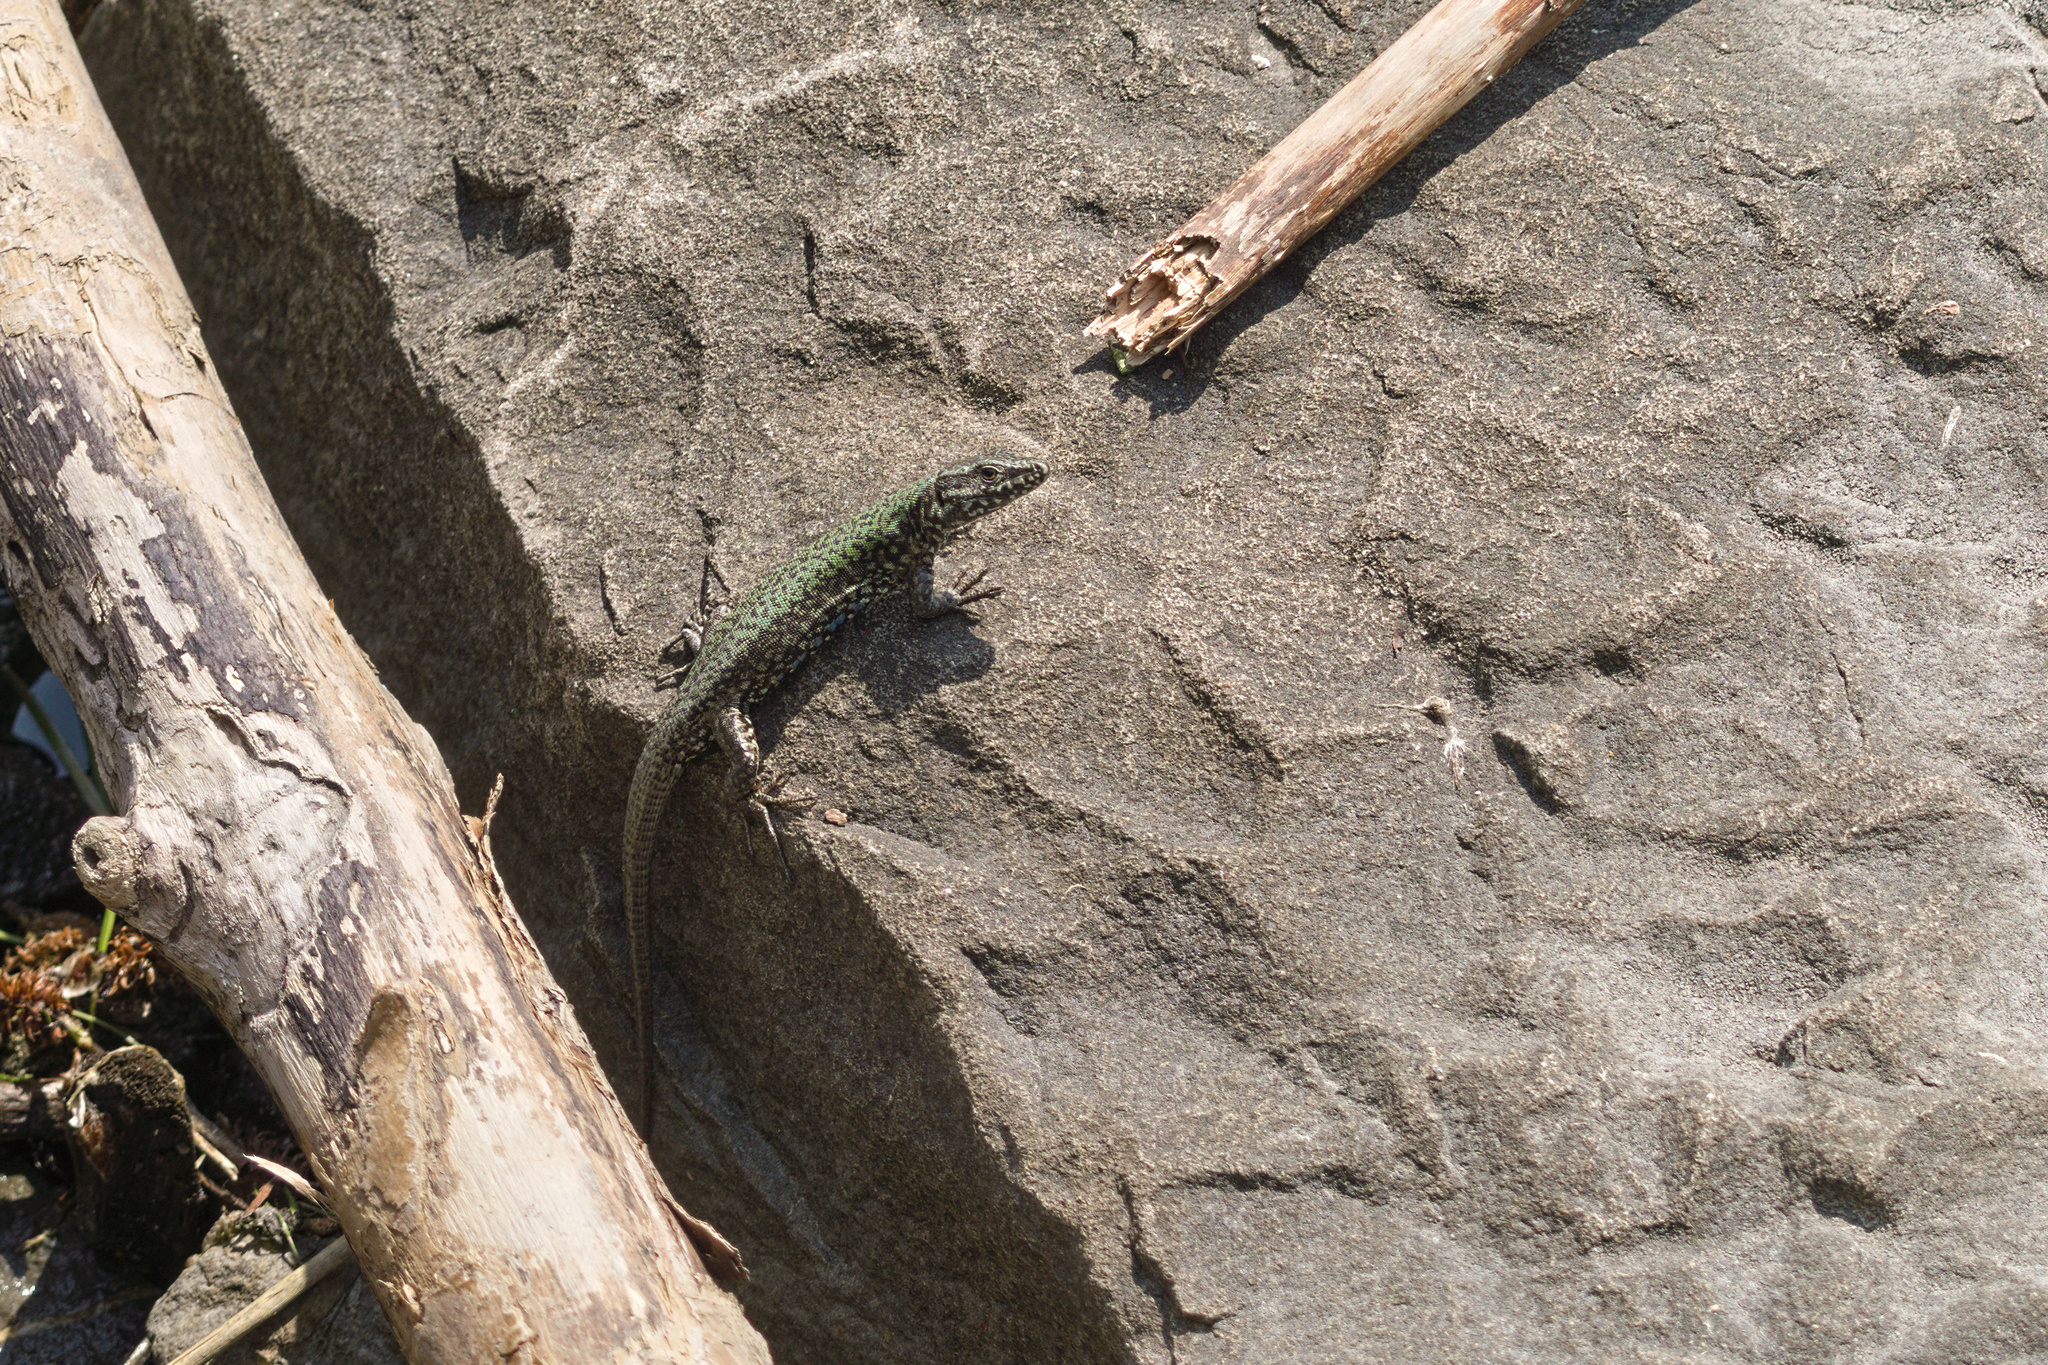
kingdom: Animalia
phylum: Chordata
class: Squamata
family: Lacertidae
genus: Podarcis
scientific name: Podarcis muralis
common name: Common wall lizard
